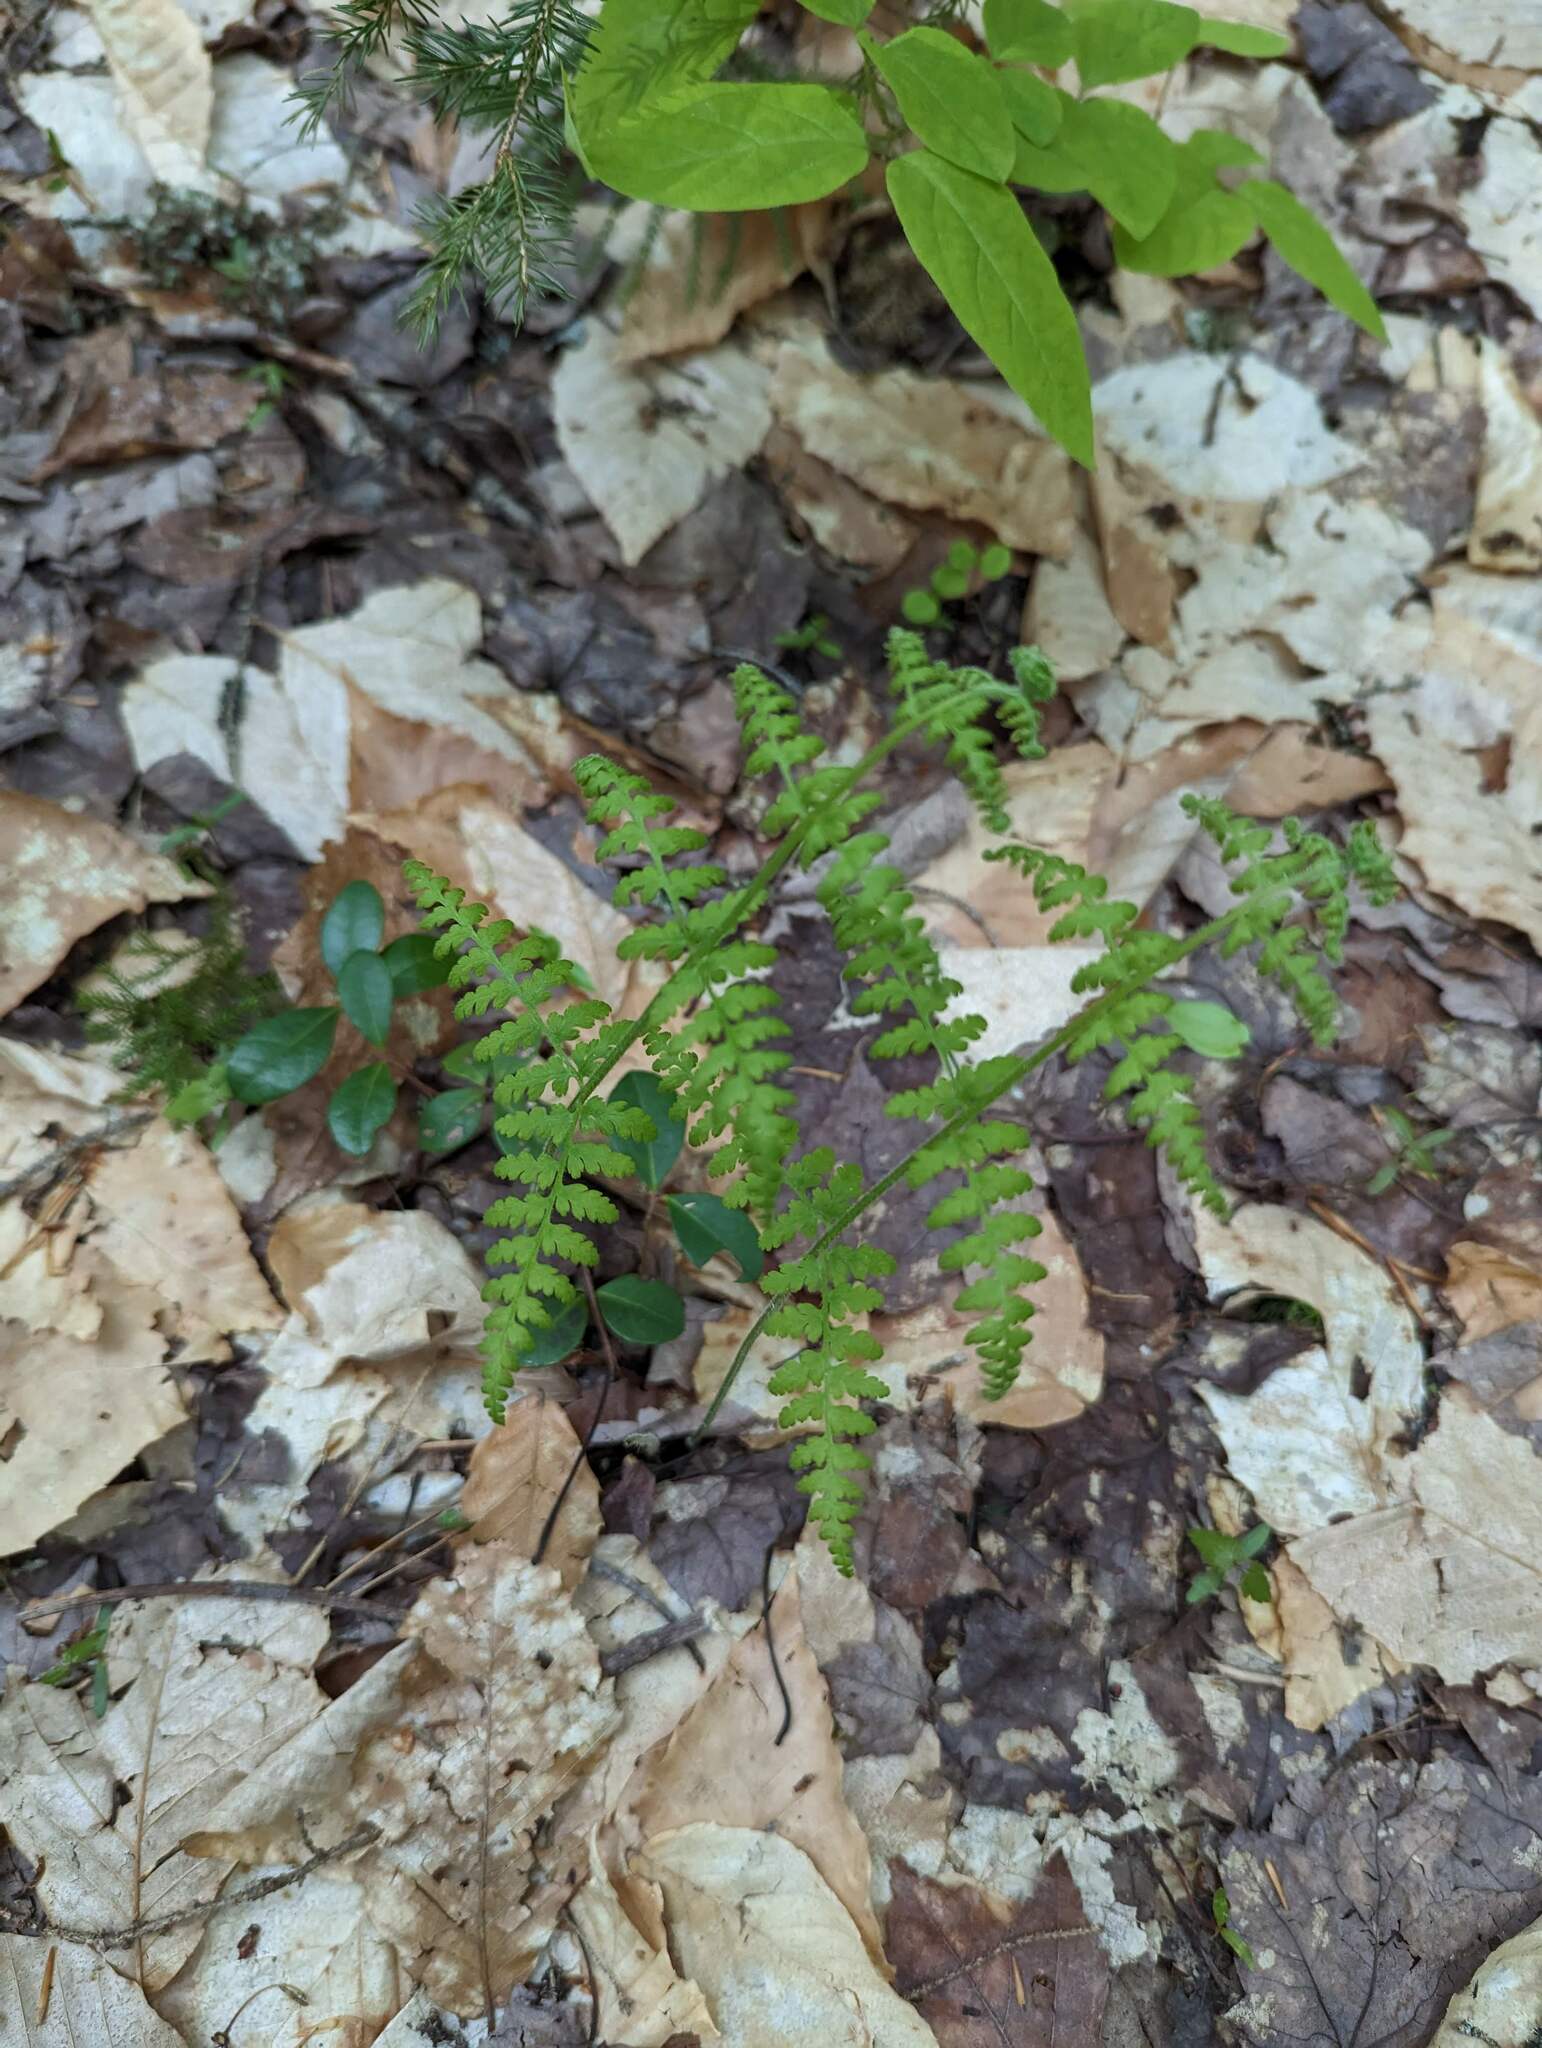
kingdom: Plantae
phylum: Tracheophyta
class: Polypodiopsida
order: Polypodiales
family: Dennstaedtiaceae
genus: Sitobolium
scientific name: Sitobolium punctilobum
